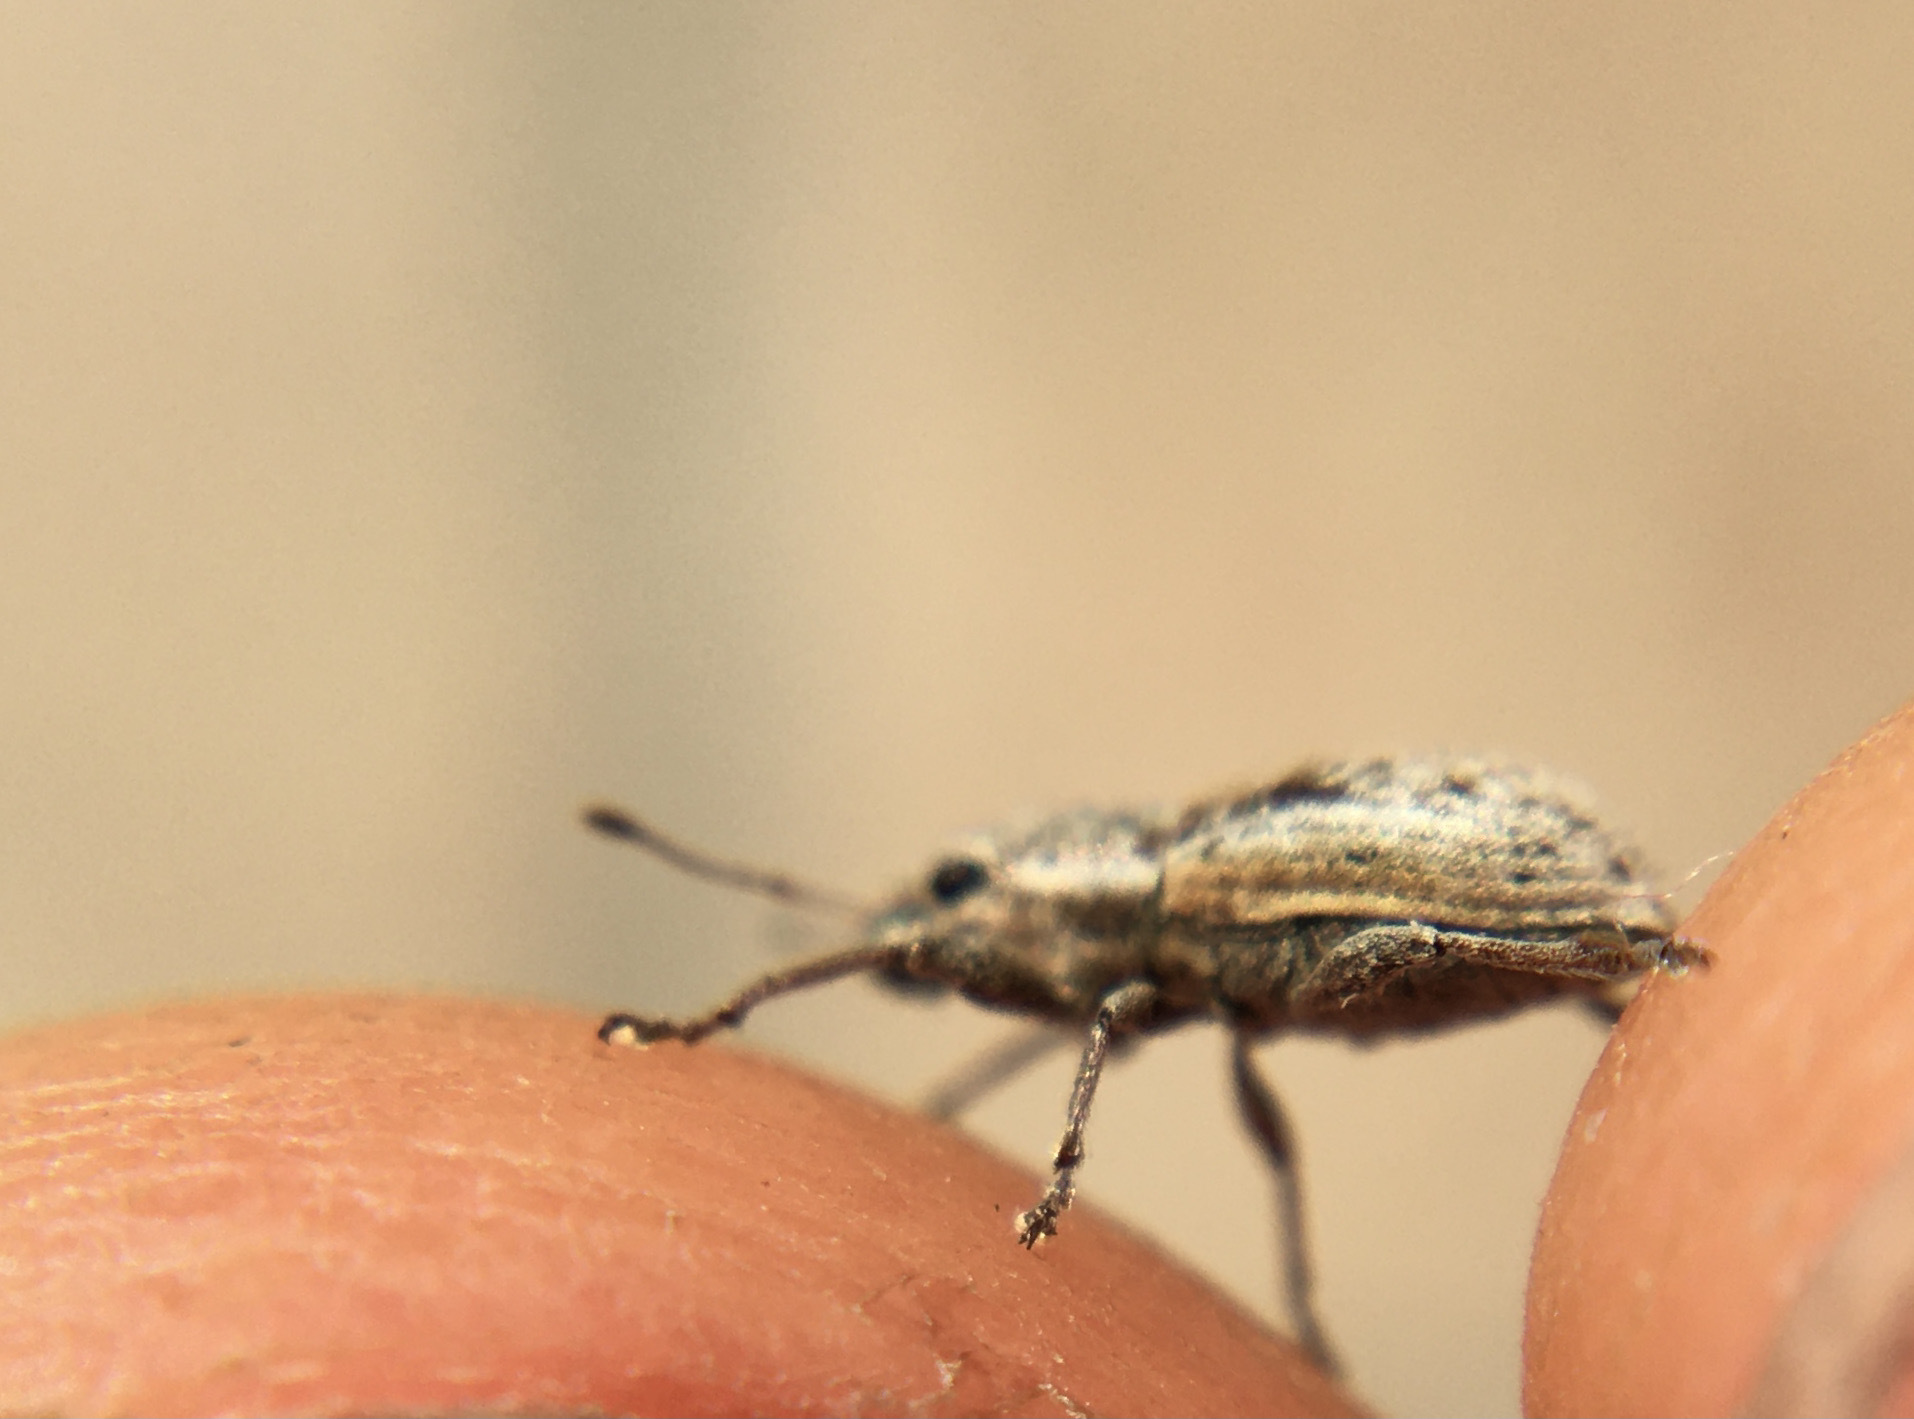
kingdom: Animalia
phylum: Arthropoda
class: Insecta
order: Coleoptera
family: Curculionidae
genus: Atrichonotus
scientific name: Atrichonotus taeniatulus
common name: Small lucerne weevil
